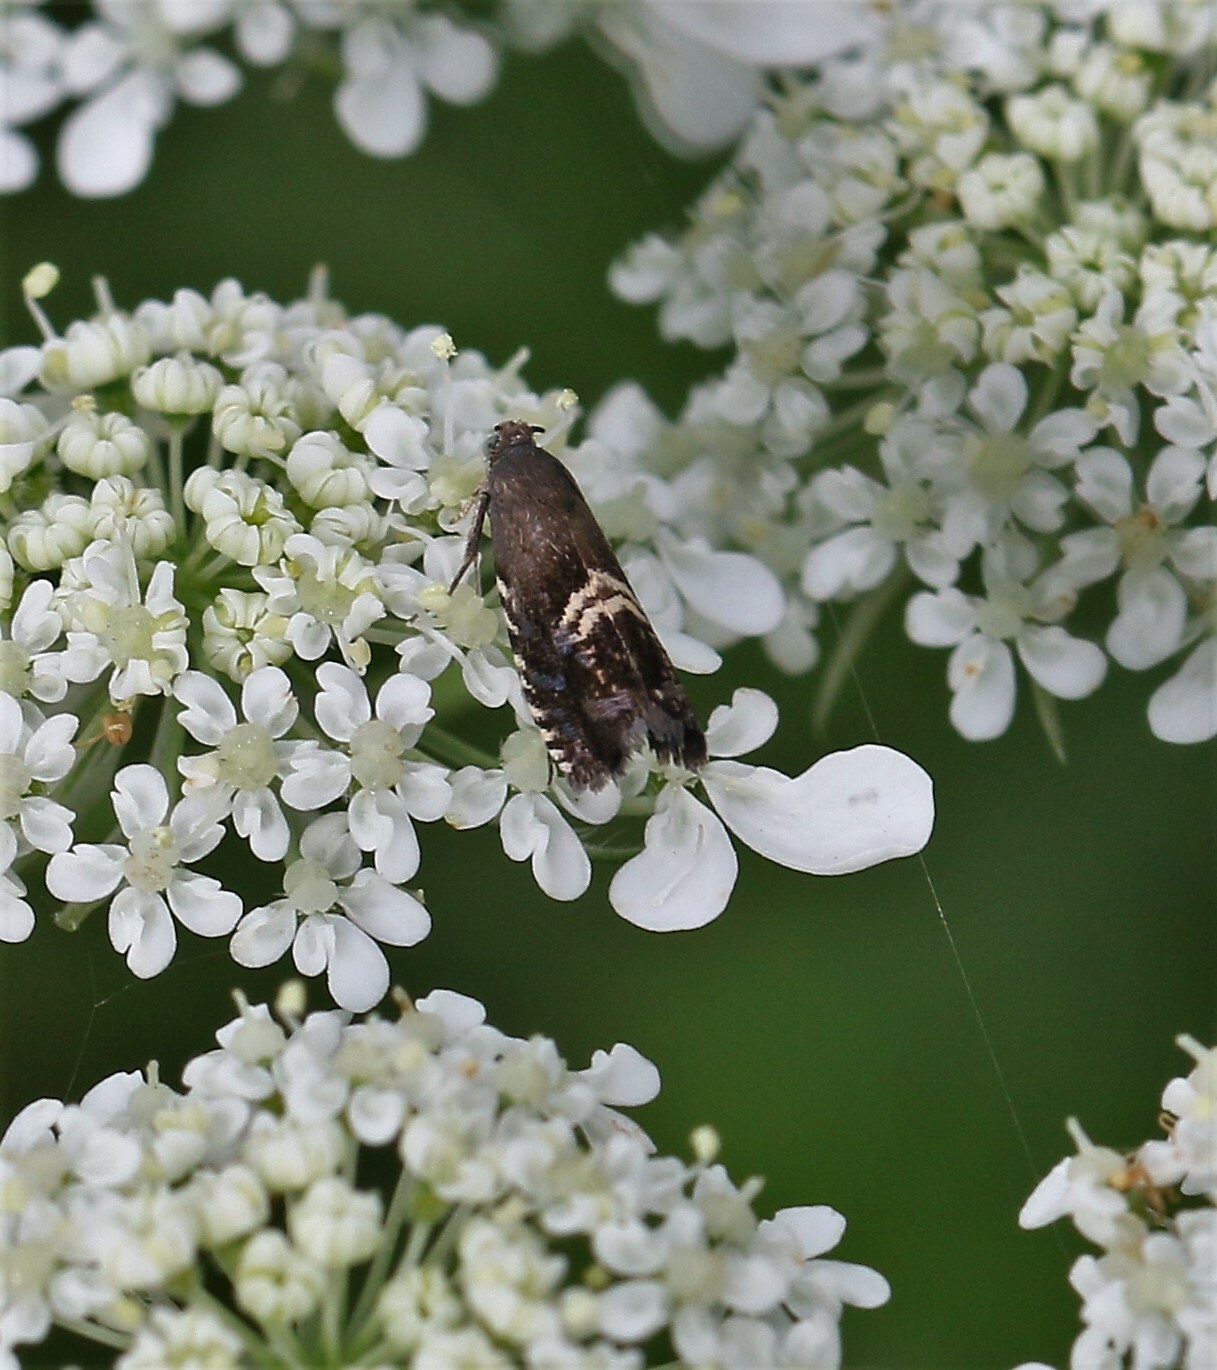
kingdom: Animalia
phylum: Arthropoda
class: Insecta
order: Lepidoptera
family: Tortricidae
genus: Grapholita
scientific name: Grapholita interstinctana
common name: Clover head caterpillar moth
